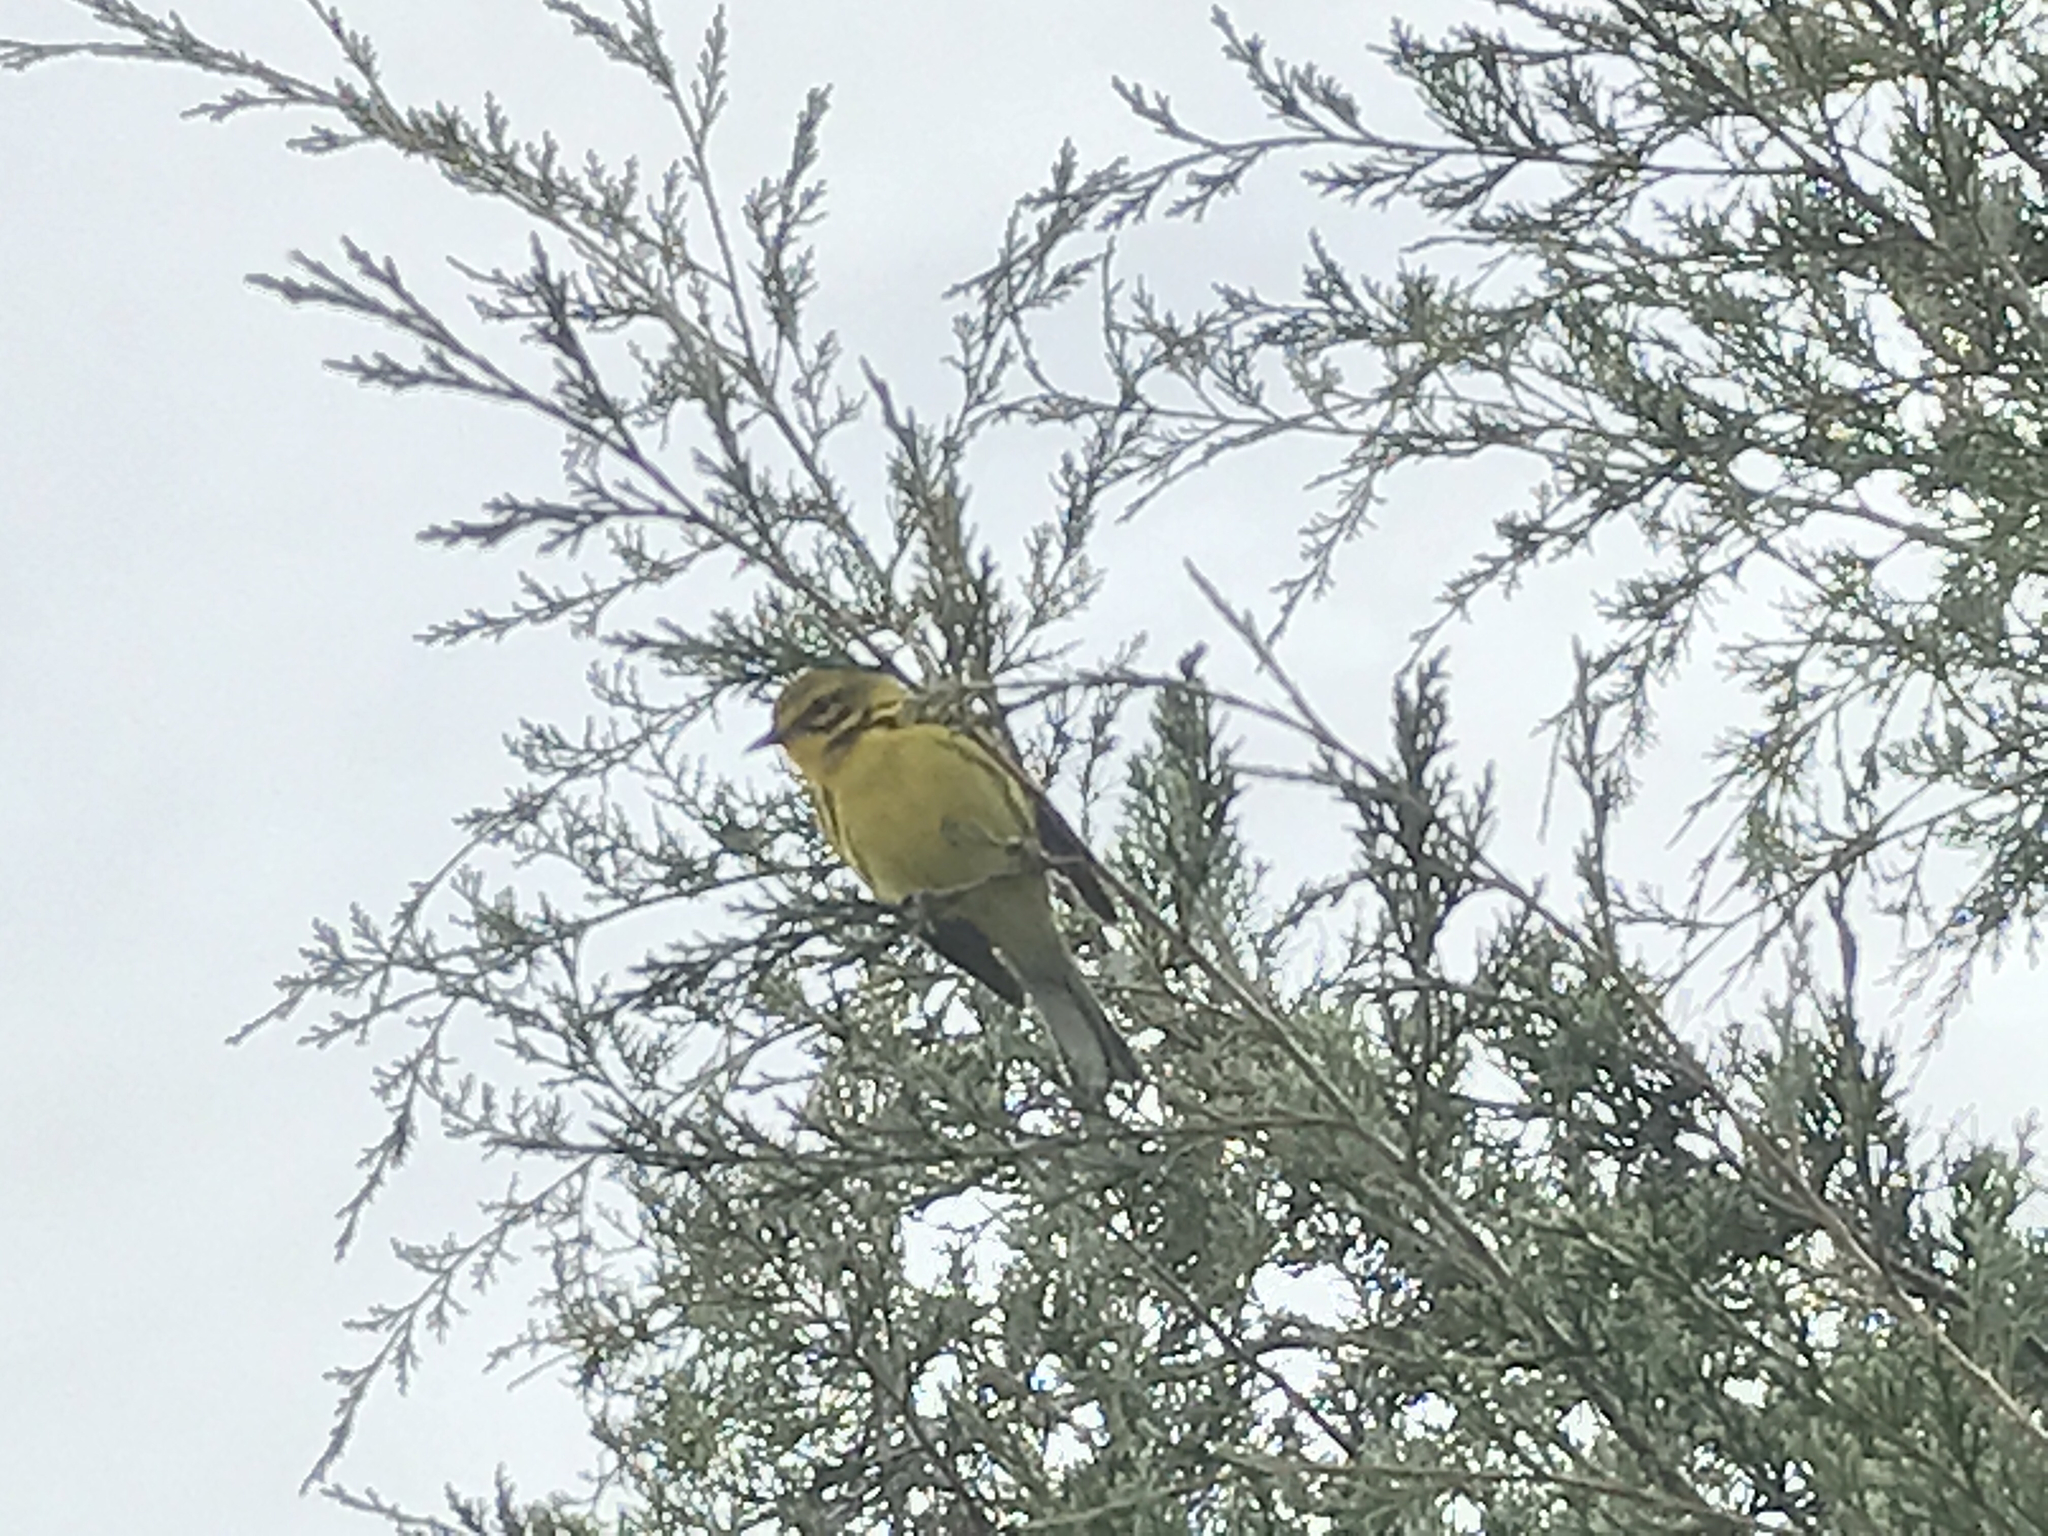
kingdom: Animalia
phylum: Chordata
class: Aves
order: Passeriformes
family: Parulidae
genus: Setophaga
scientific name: Setophaga discolor
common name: Prairie warbler
